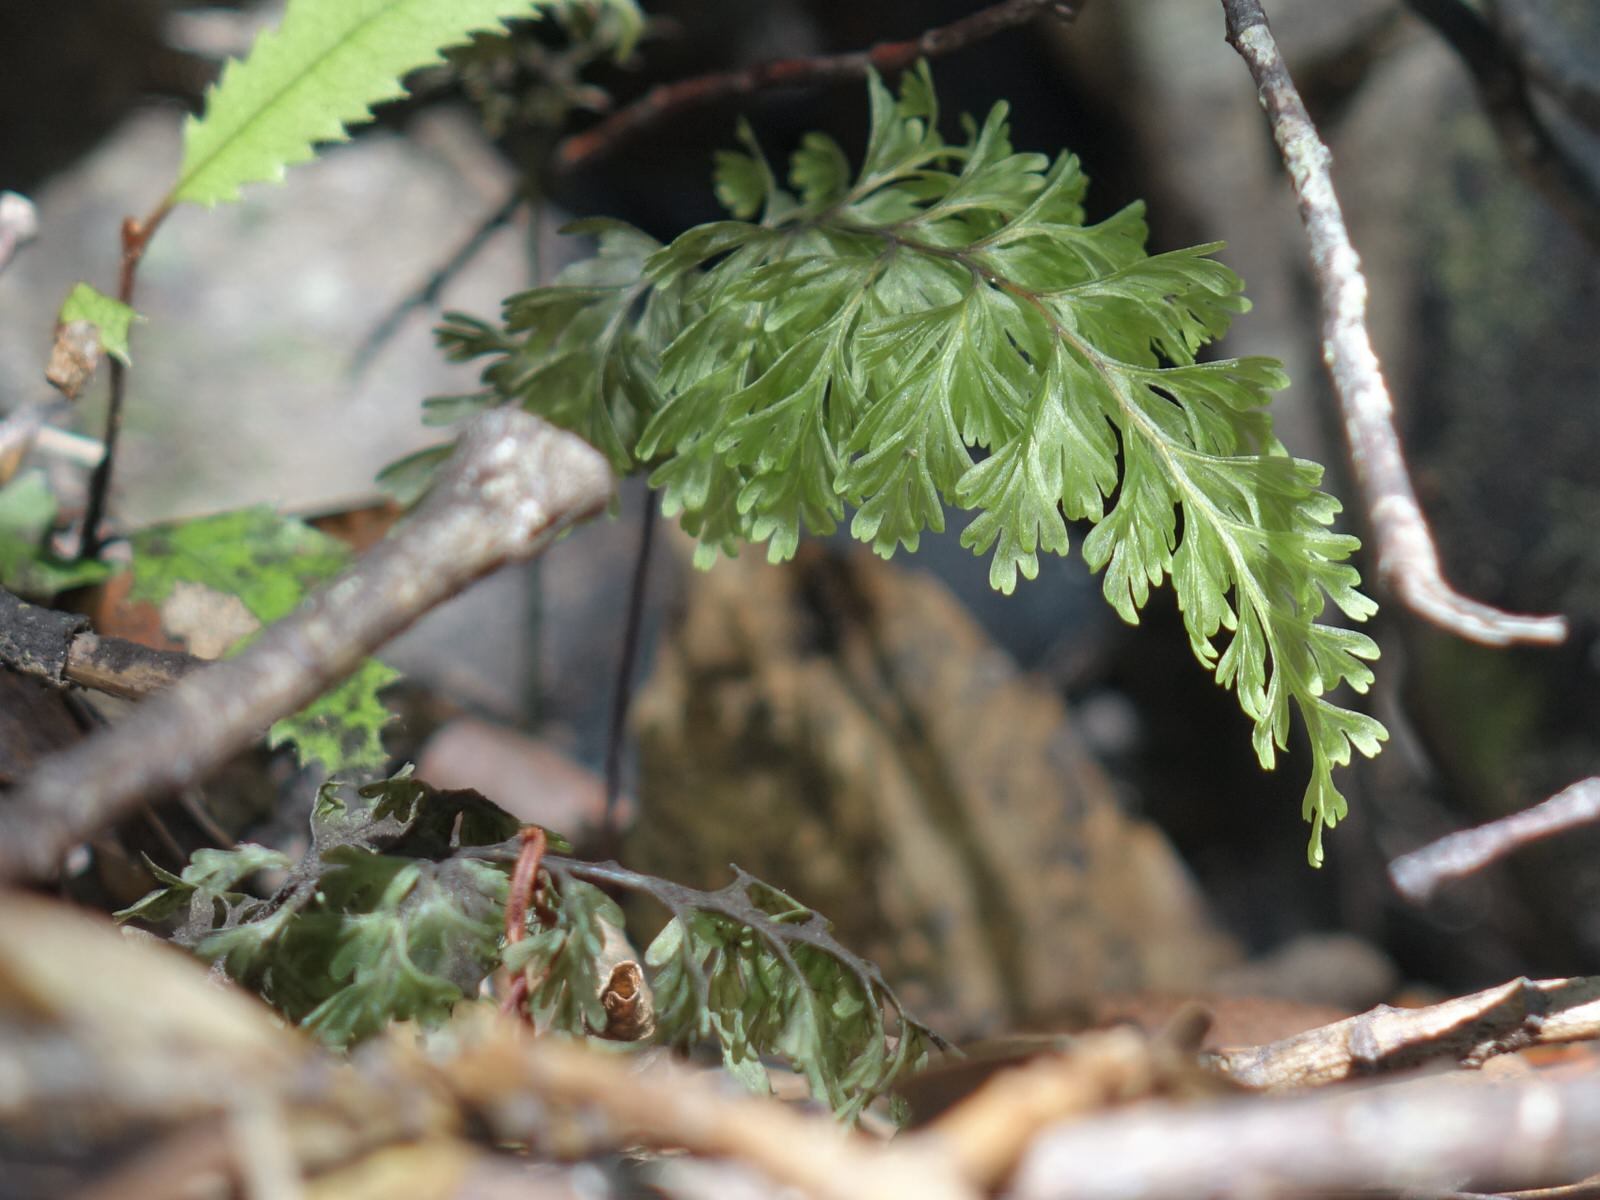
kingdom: Plantae
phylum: Tracheophyta
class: Polypodiopsida
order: Hymenophyllales
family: Hymenophyllaceae
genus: Hymenophyllum
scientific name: Hymenophyllum demissum
